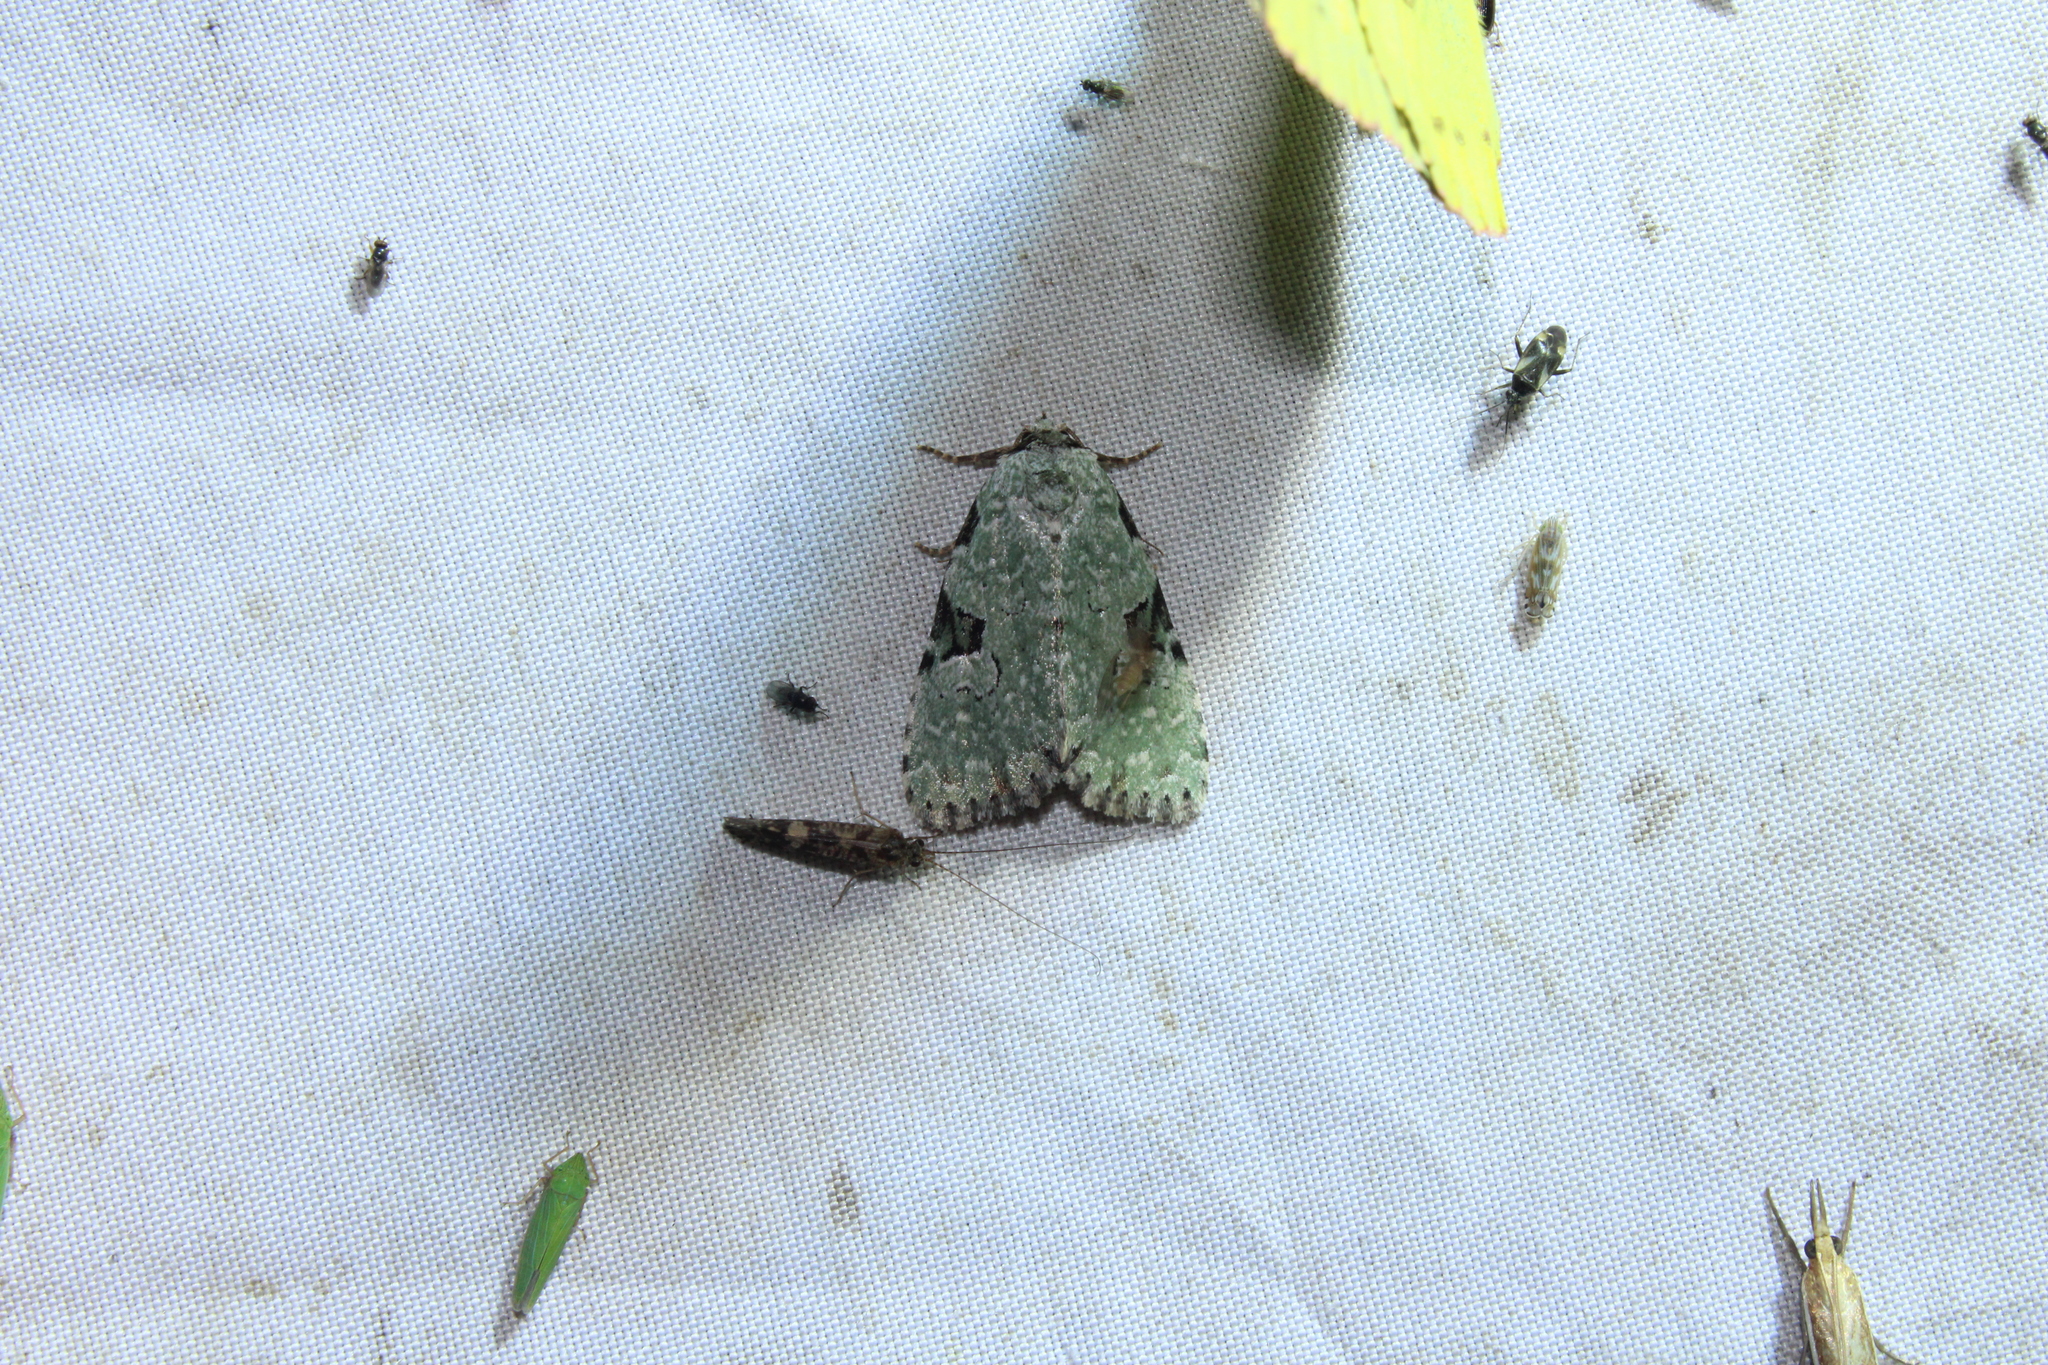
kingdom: Animalia
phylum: Arthropoda
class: Insecta
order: Lepidoptera
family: Noctuidae
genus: Leuconycta
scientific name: Leuconycta diphteroides
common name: Green leuconycta moth
